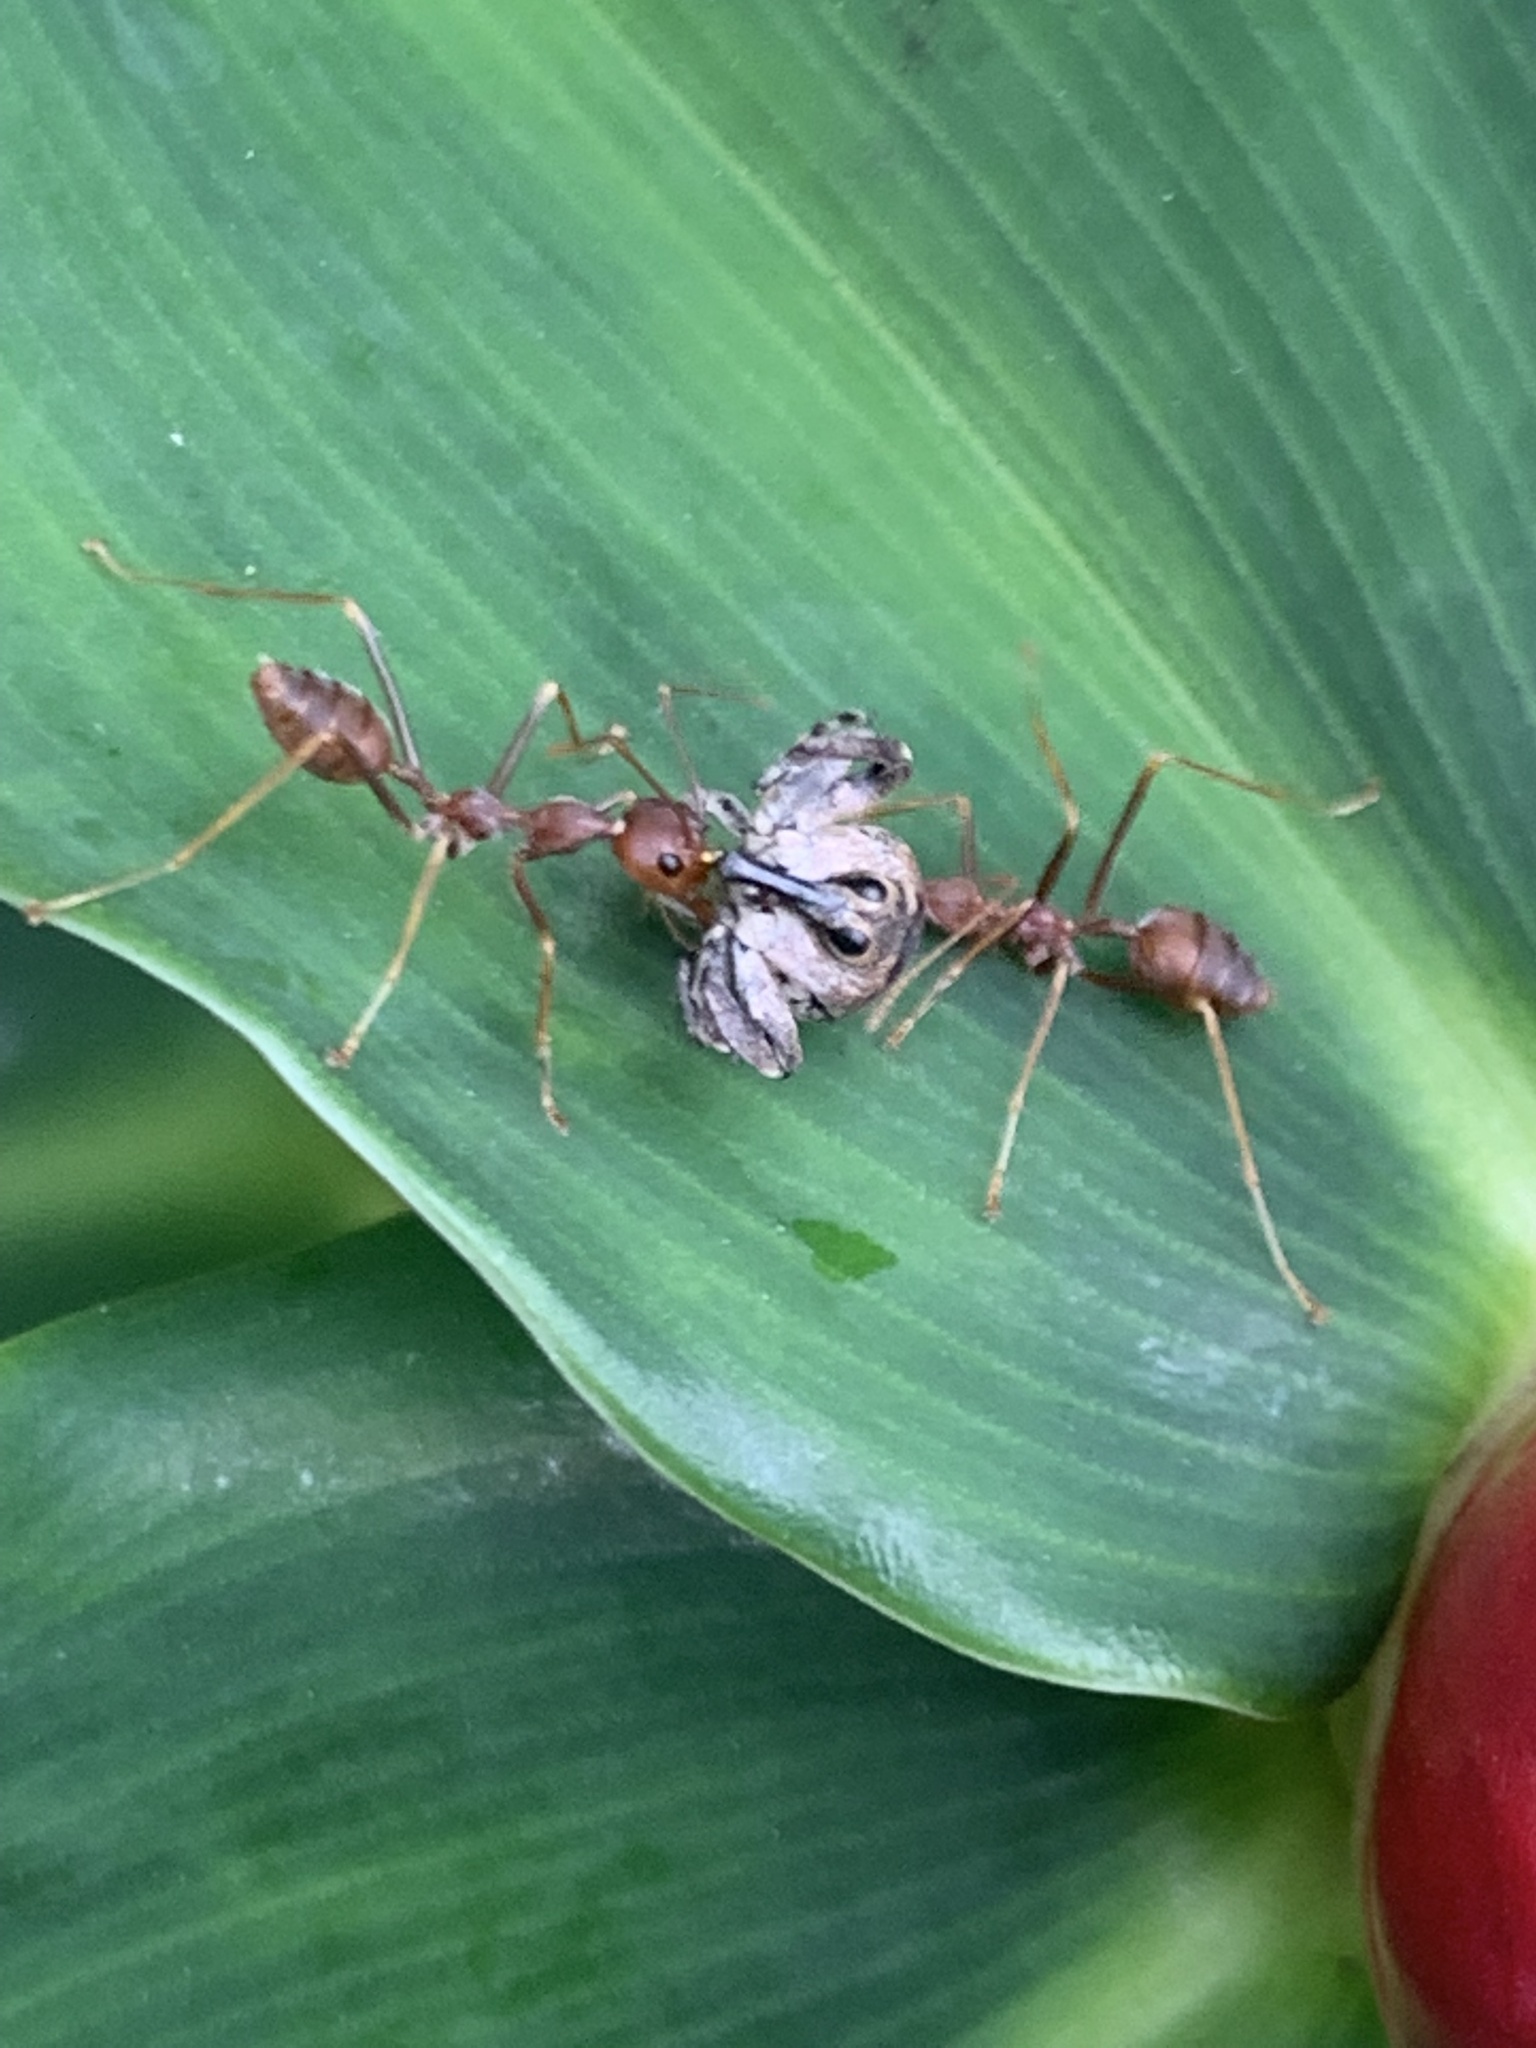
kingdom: Animalia
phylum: Arthropoda
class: Insecta
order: Hymenoptera
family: Formicidae
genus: Oecophylla
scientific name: Oecophylla smaragdina
